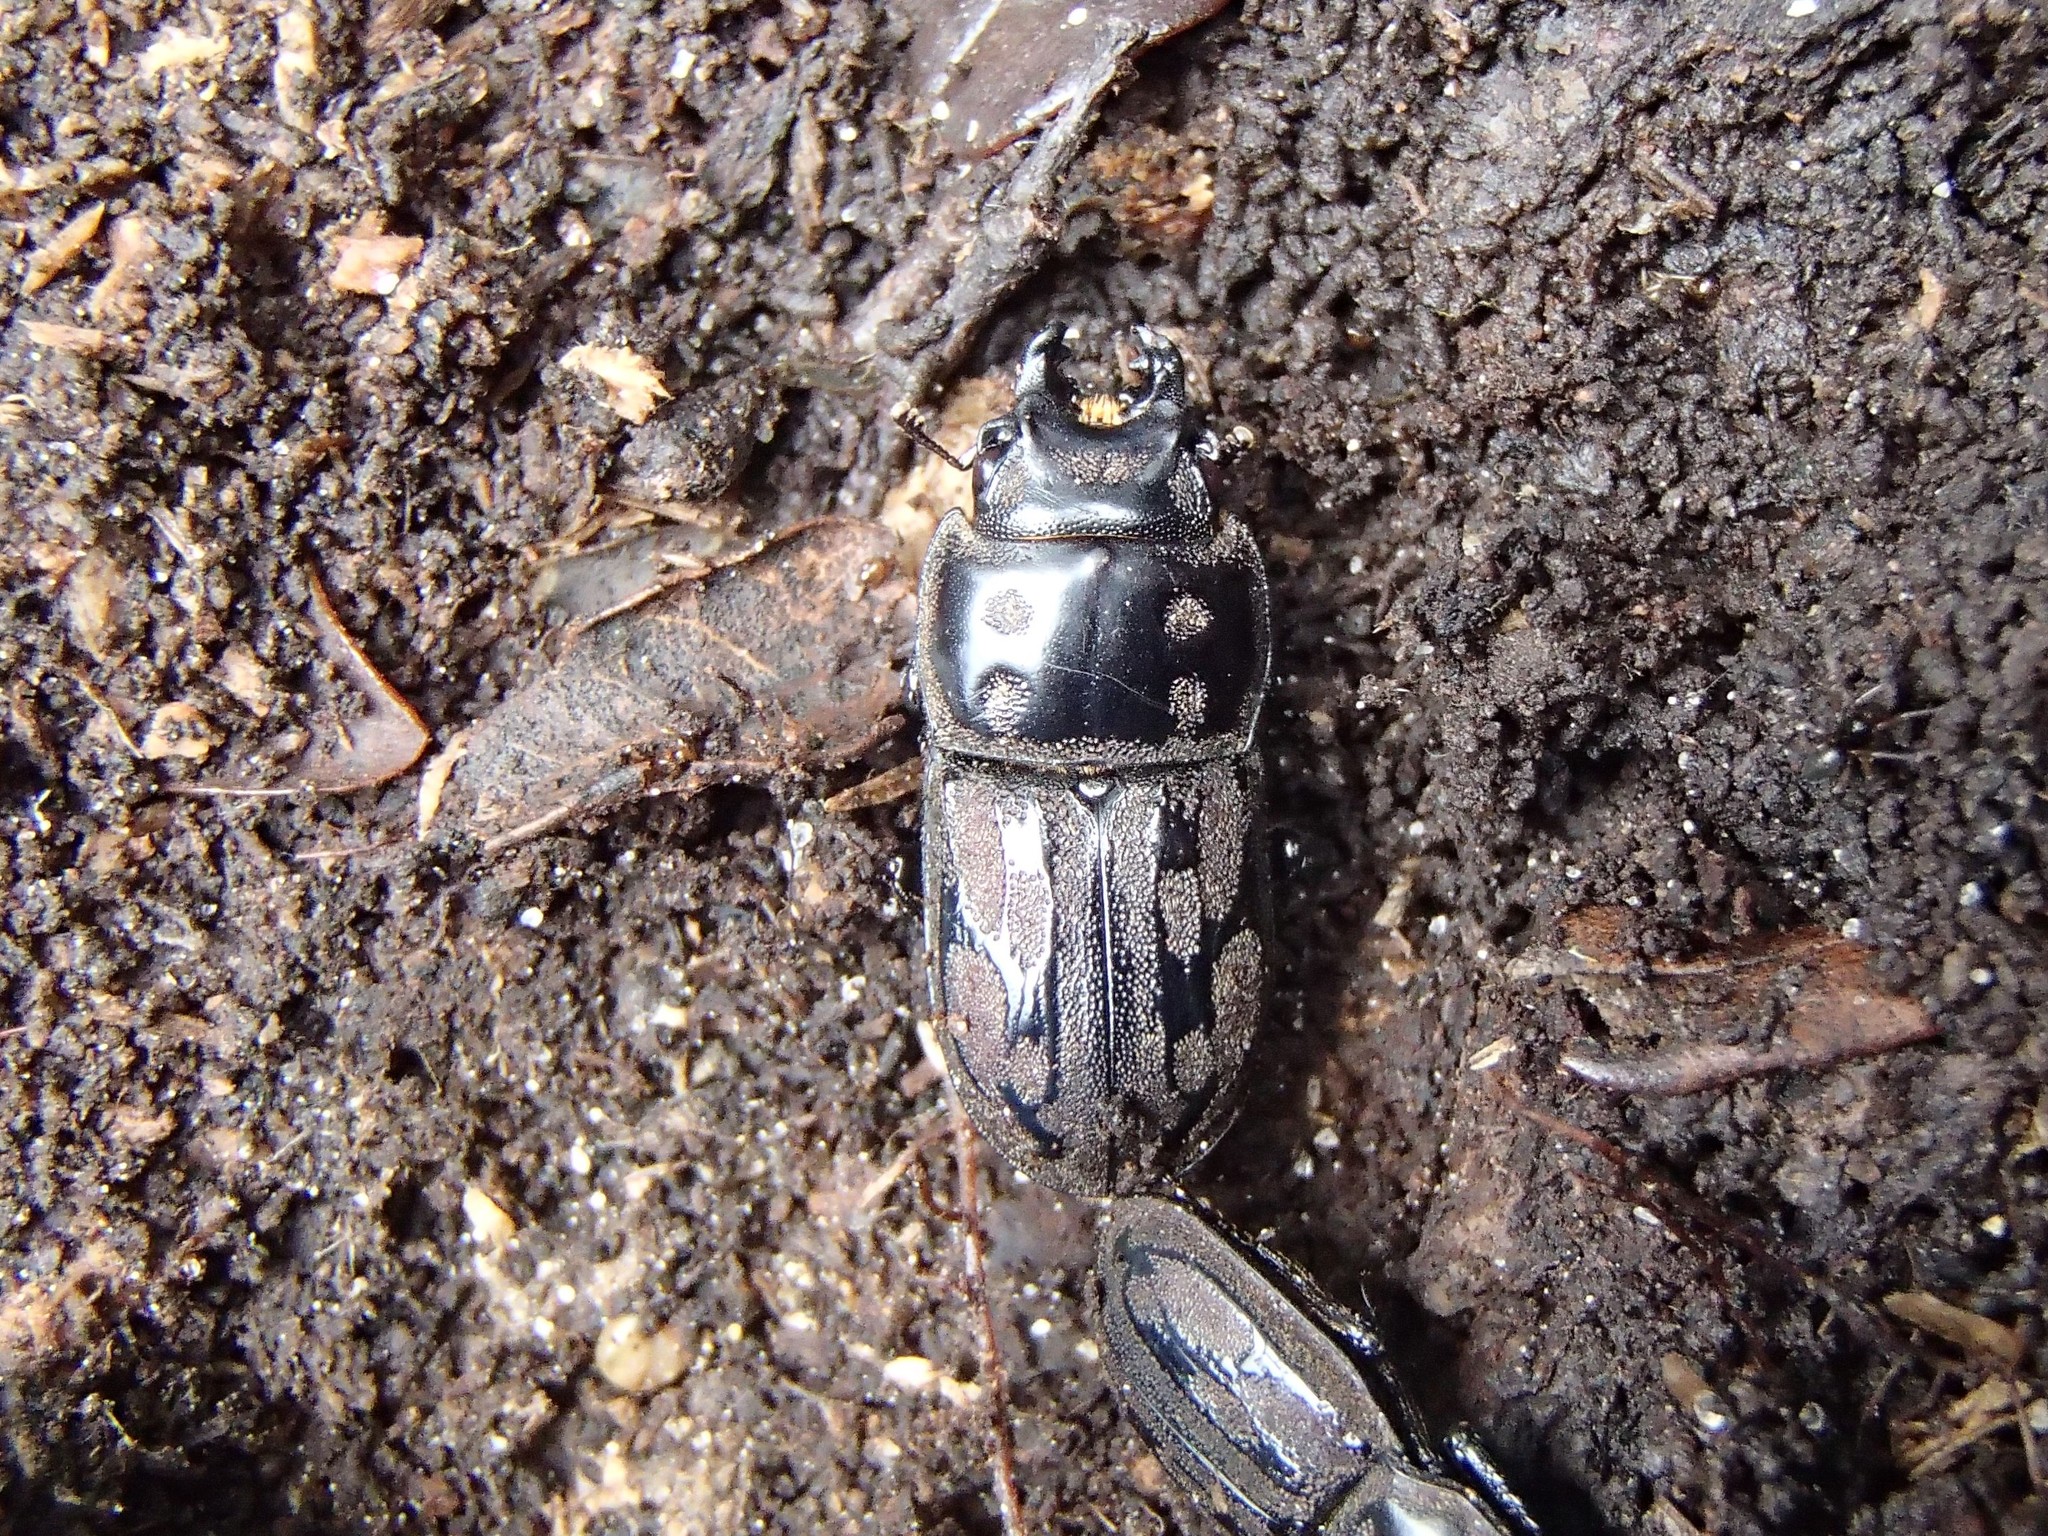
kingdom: Animalia
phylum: Arthropoda
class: Insecta
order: Coleoptera
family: Lucanidae
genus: Paralissotes
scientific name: Paralissotes reticulatus
